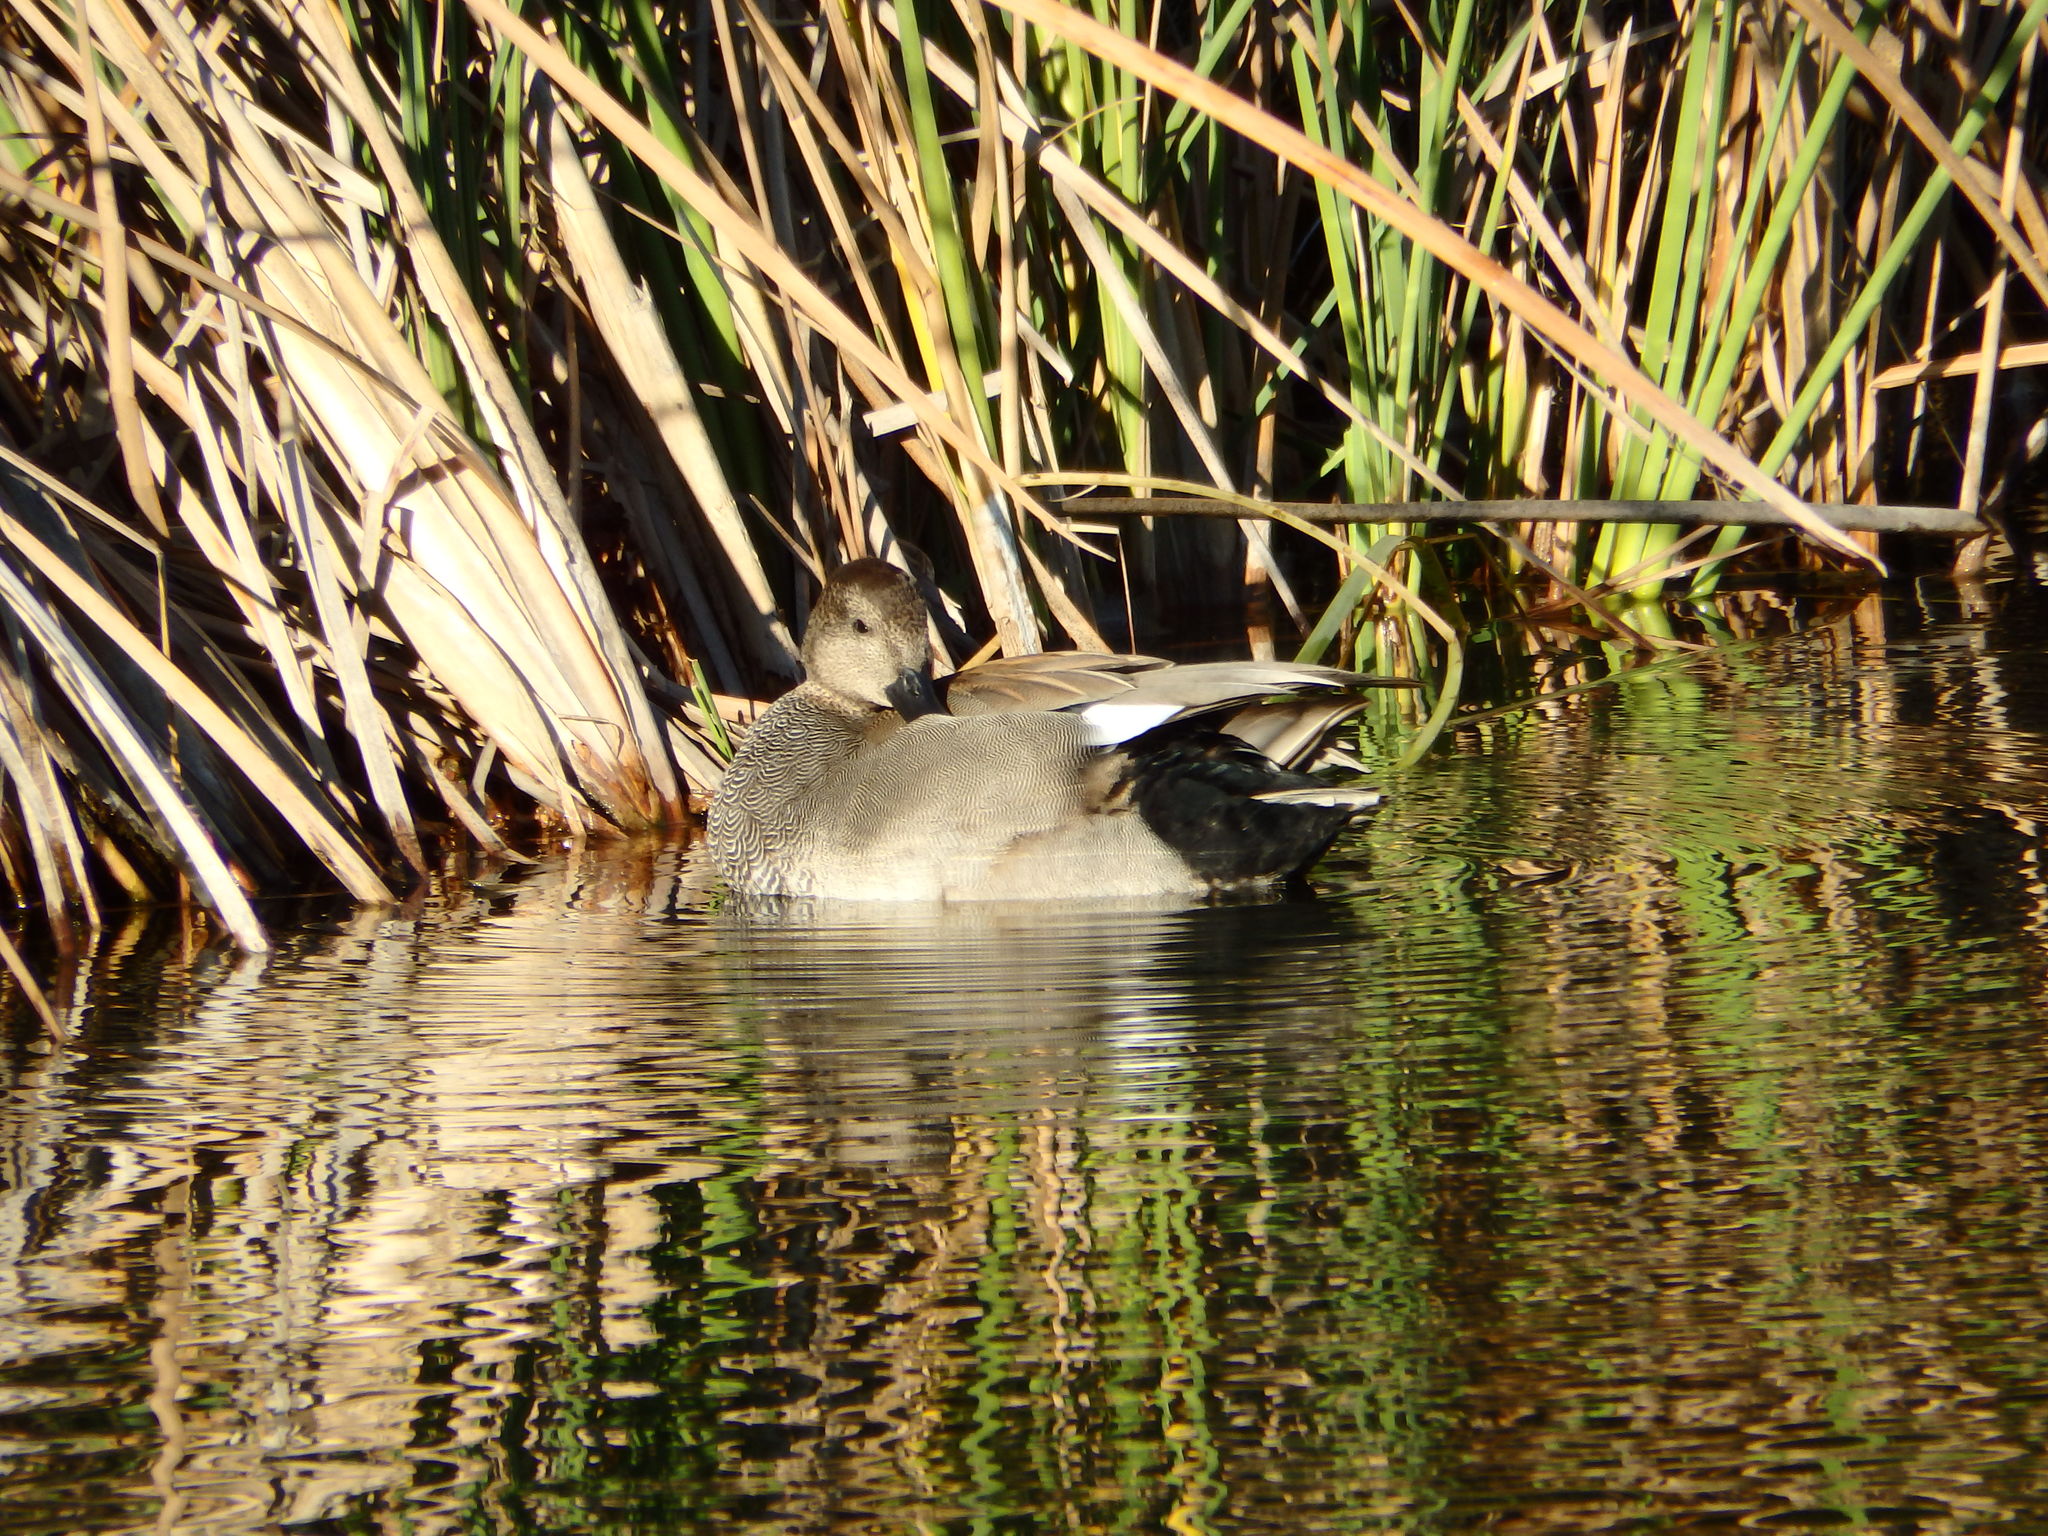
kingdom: Animalia
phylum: Chordata
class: Aves
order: Anseriformes
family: Anatidae
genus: Mareca
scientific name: Mareca strepera
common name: Gadwall
